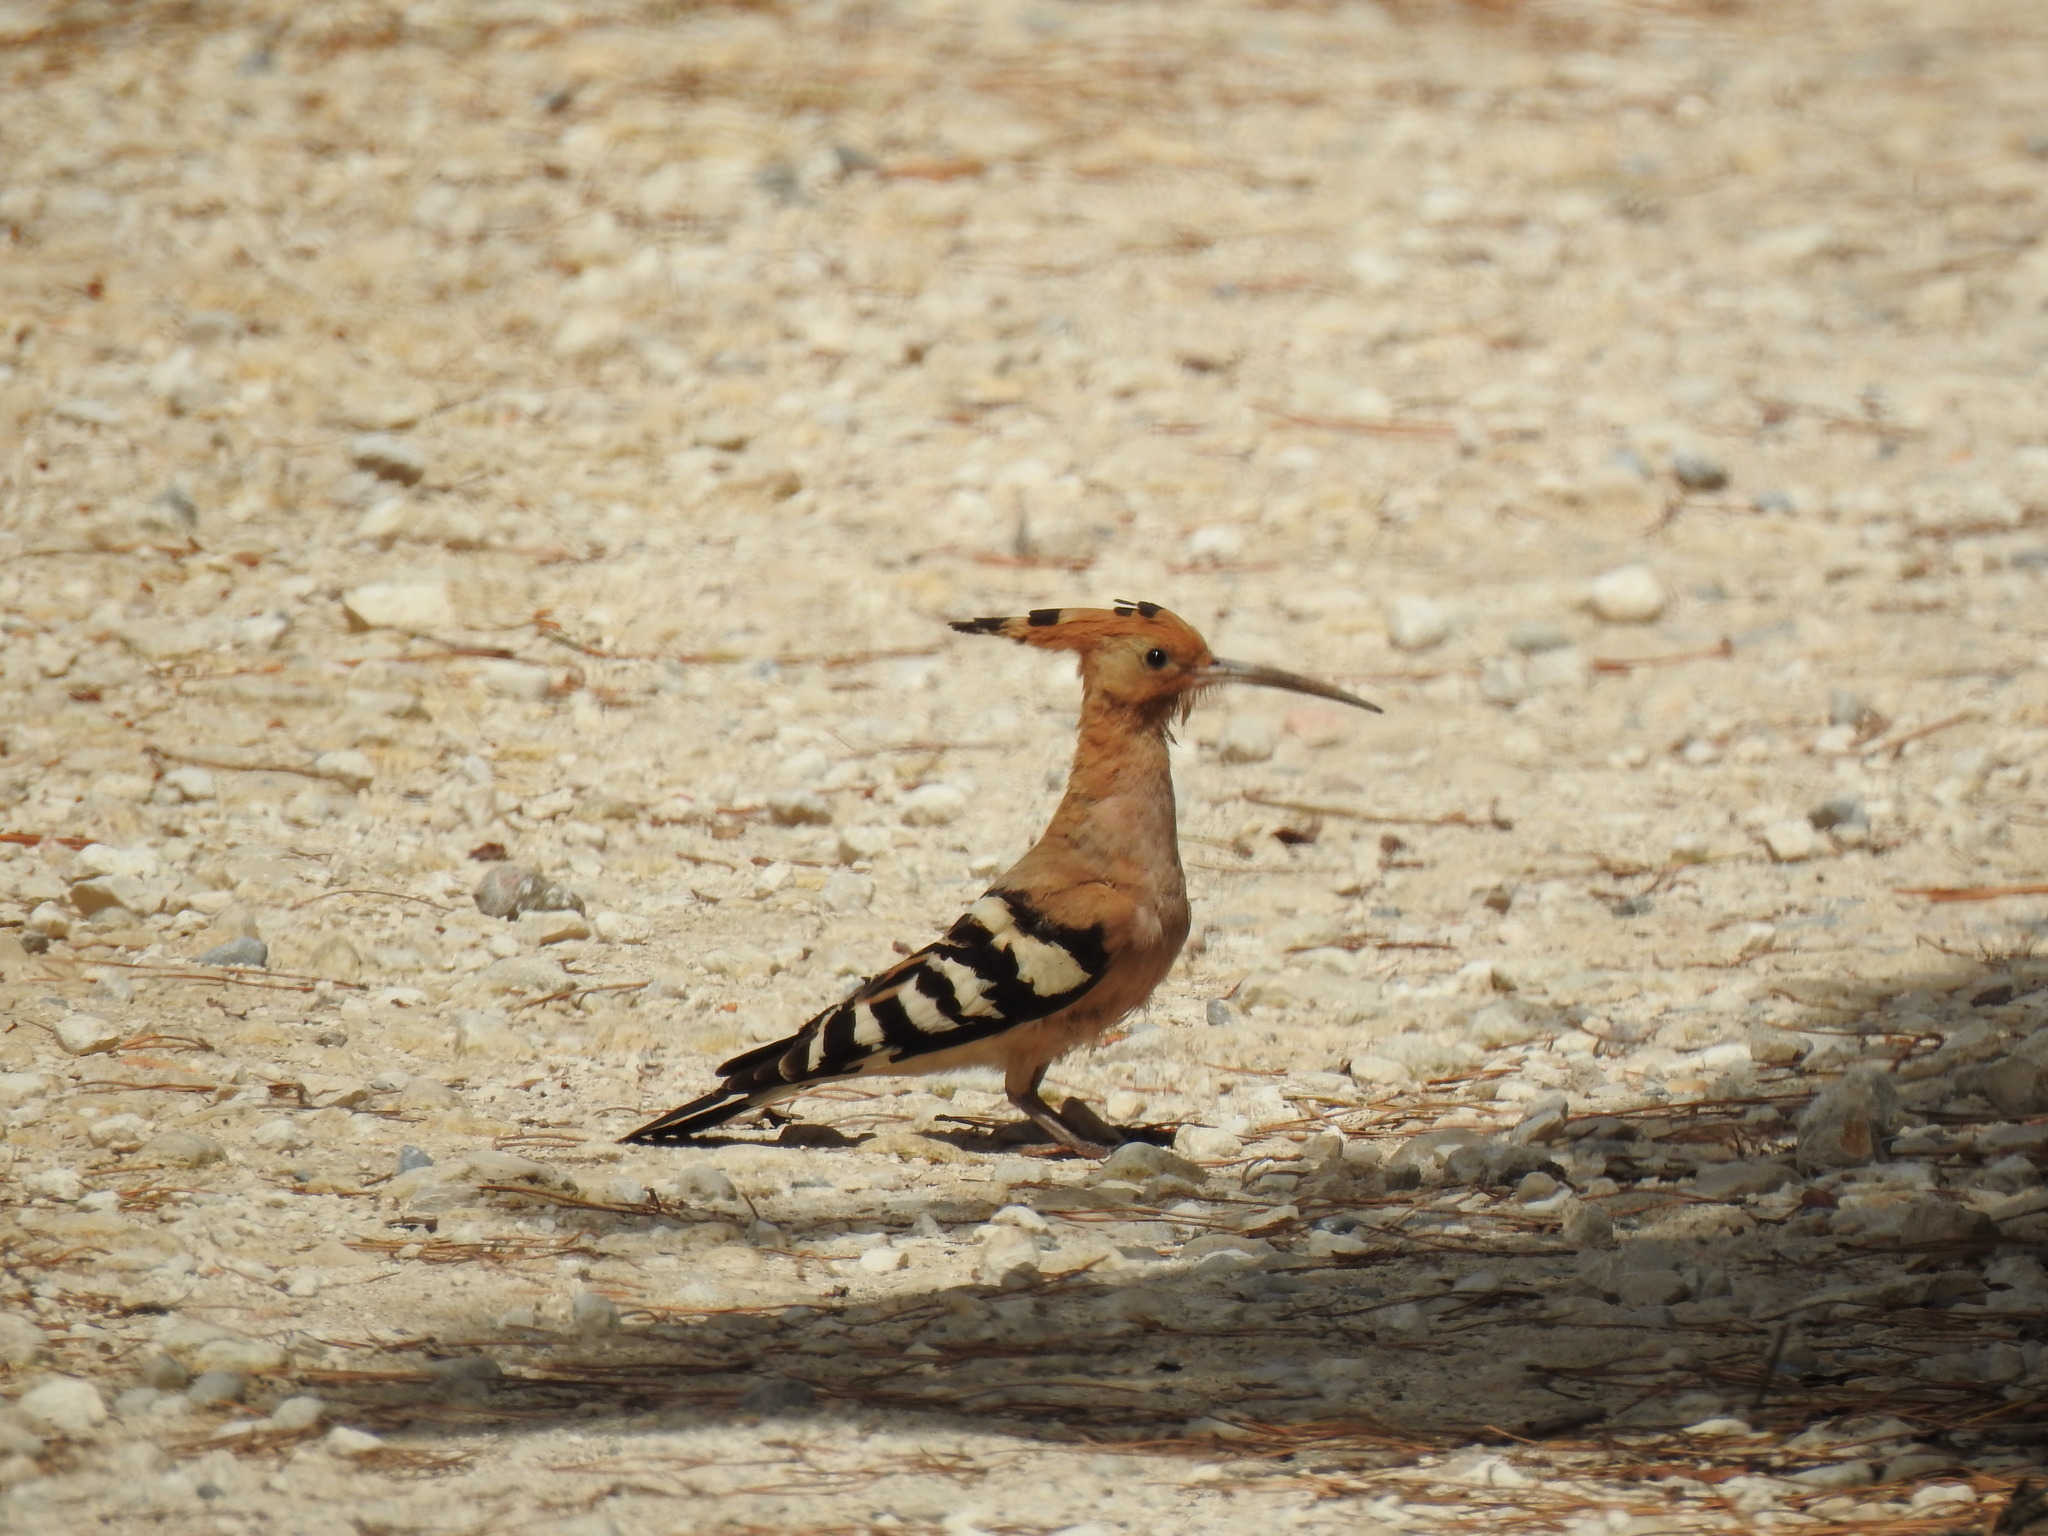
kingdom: Animalia
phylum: Chordata
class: Aves
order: Bucerotiformes
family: Upupidae
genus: Upupa
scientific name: Upupa epops
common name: Eurasian hoopoe
